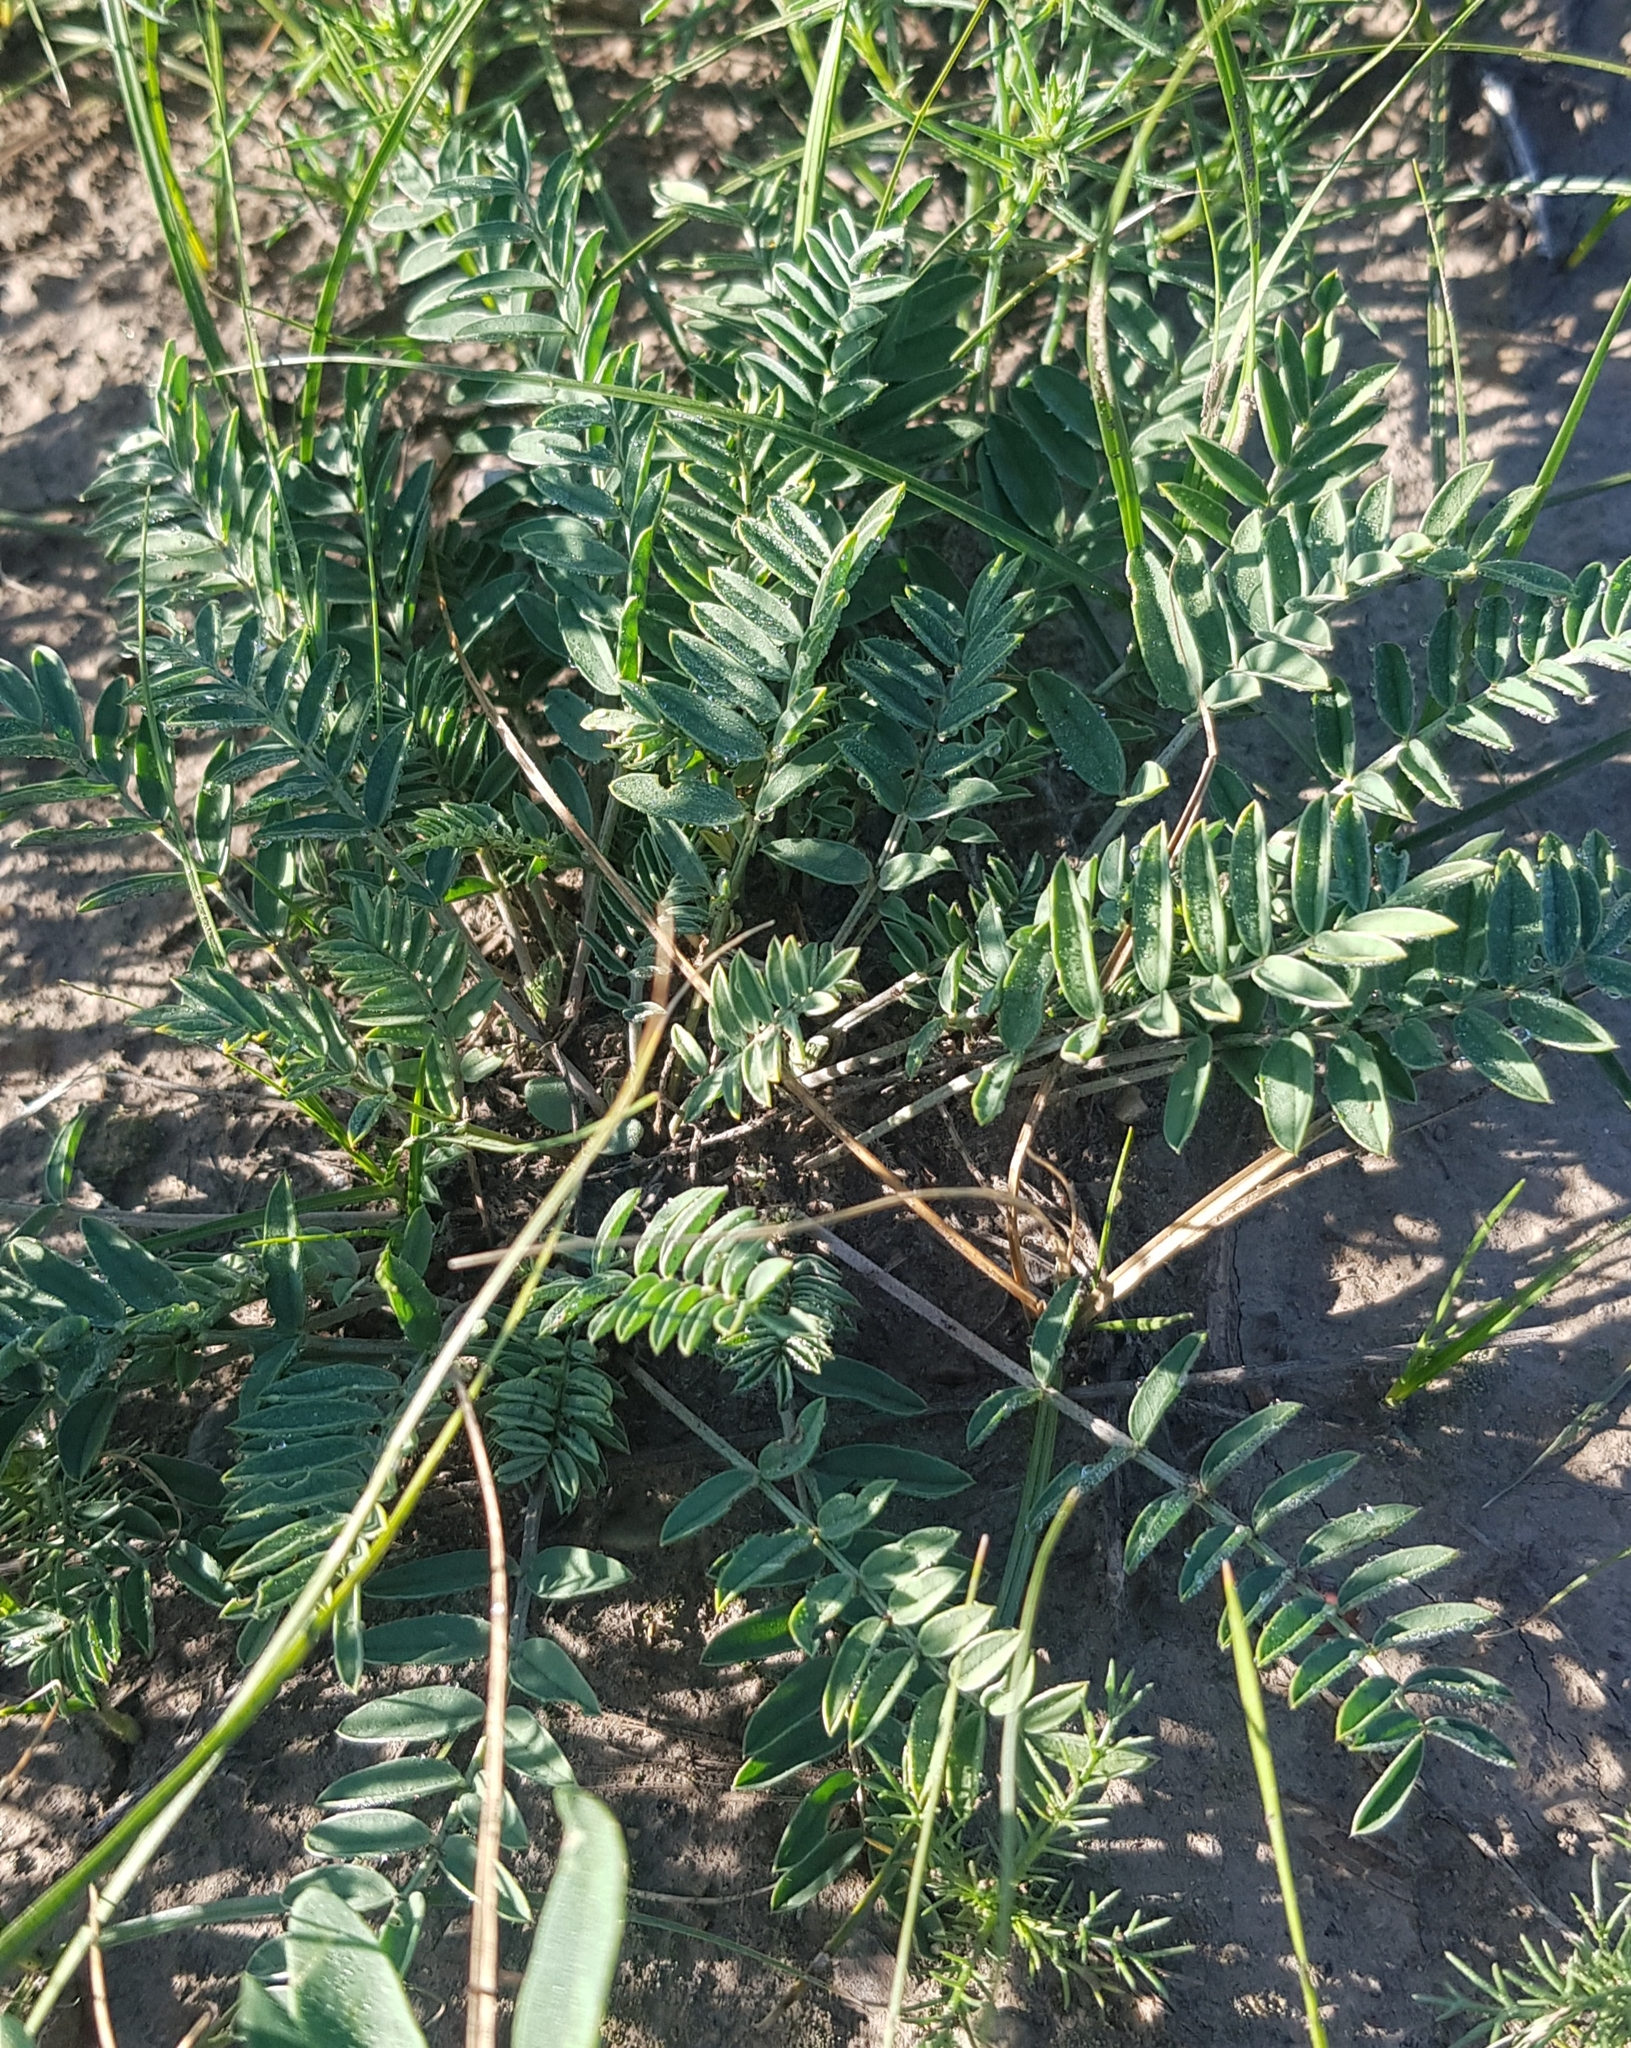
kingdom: Plantae
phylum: Tracheophyta
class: Magnoliopsida
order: Fabales
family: Fabaceae
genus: Astragalus
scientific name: Astragalus laxmannii
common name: Laxmann's milk-vetch
